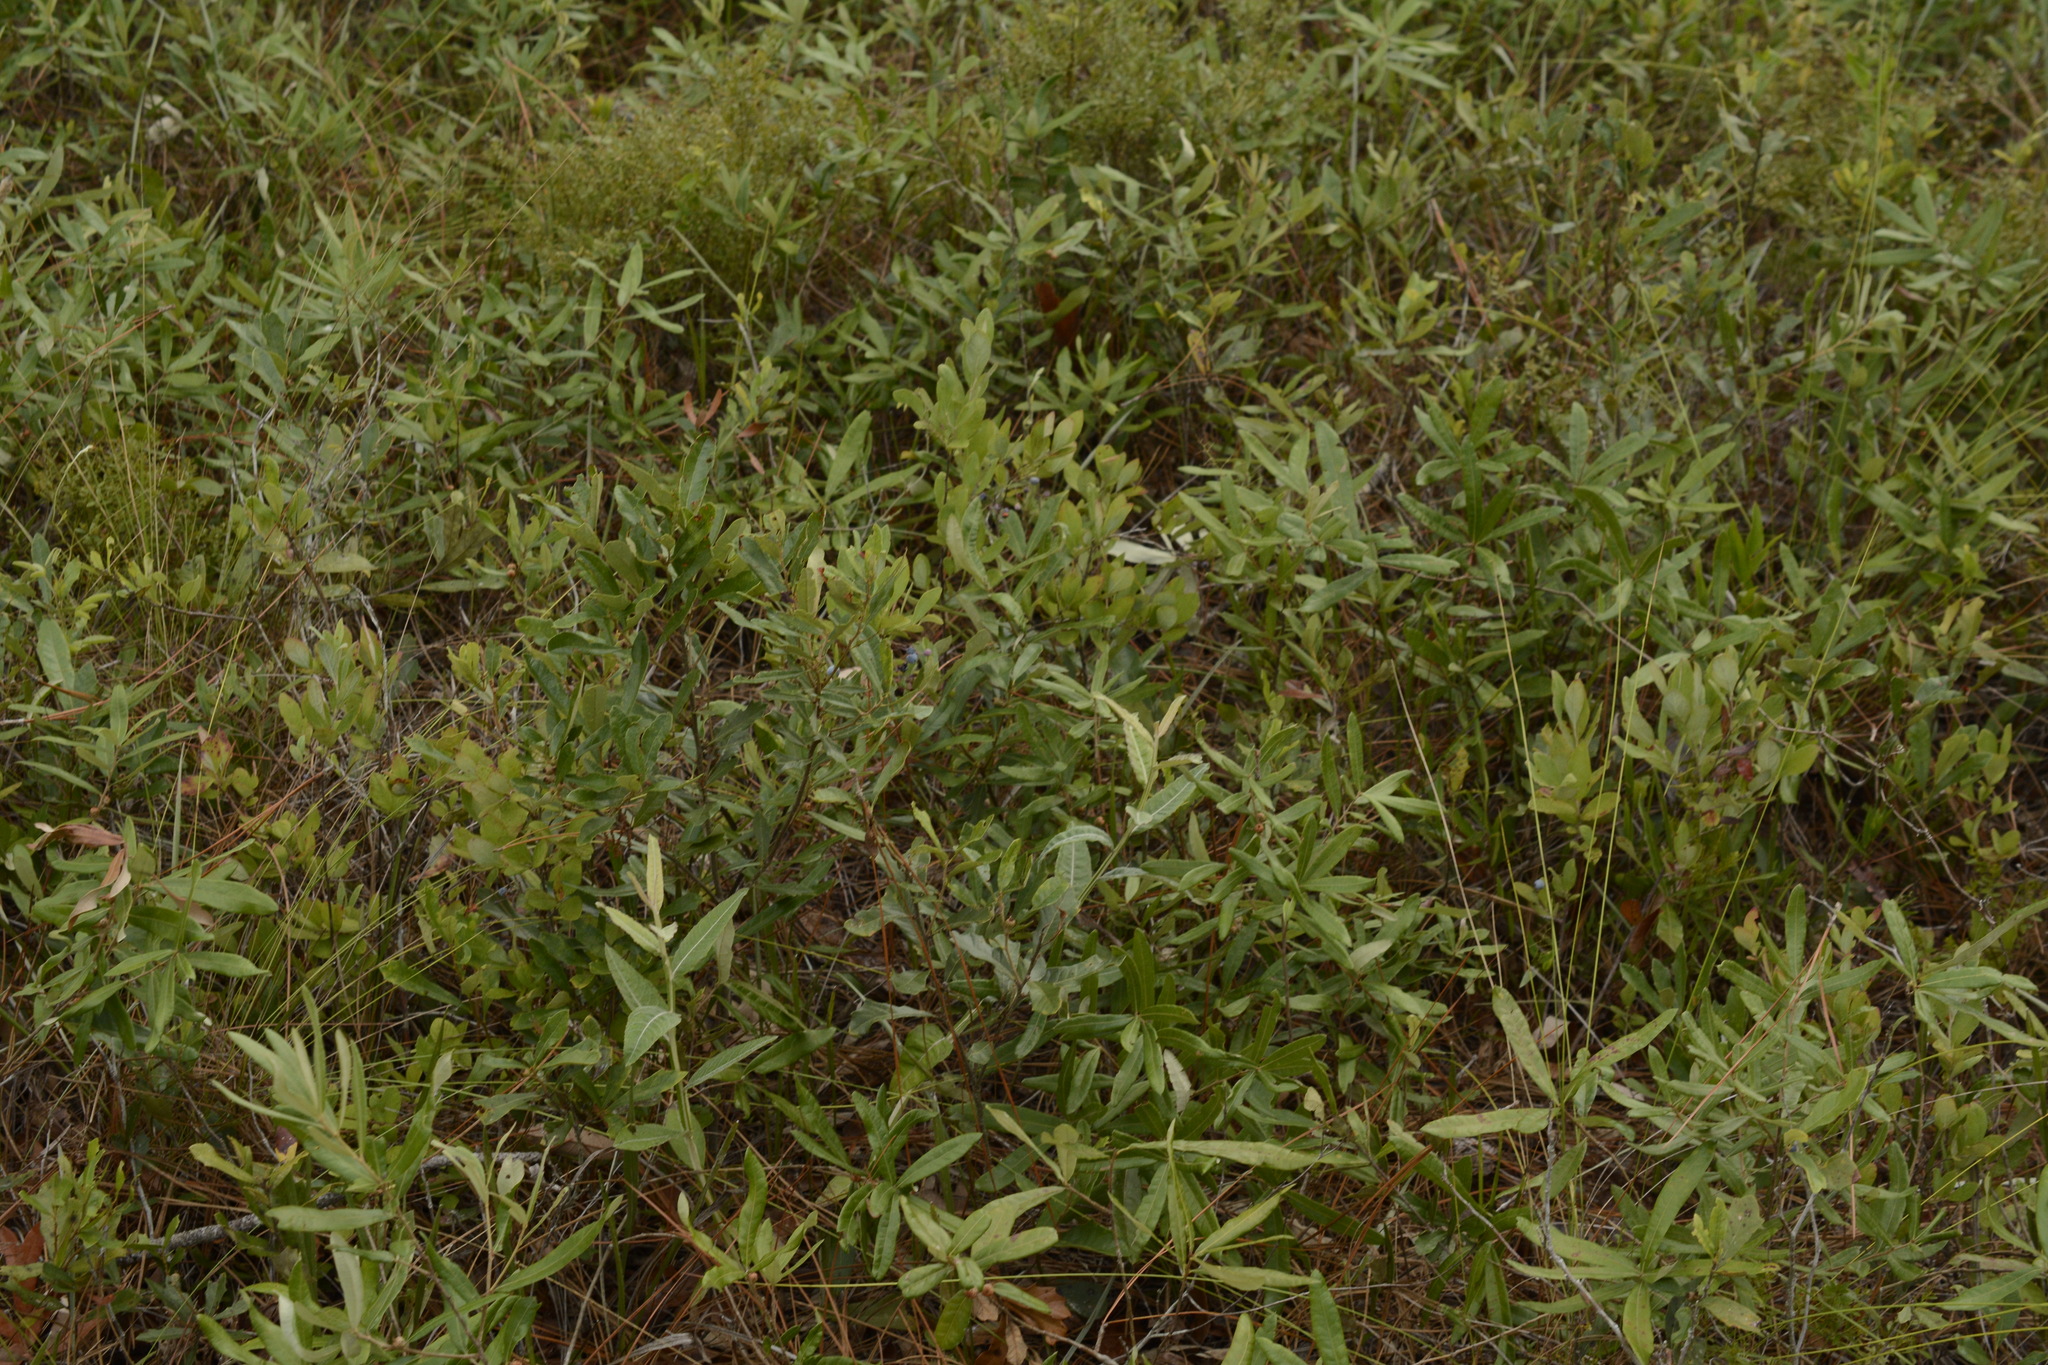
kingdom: Plantae
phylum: Tracheophyta
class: Magnoliopsida
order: Fagales
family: Fagaceae
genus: Quercus
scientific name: Quercus pumila
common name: Runner oak
